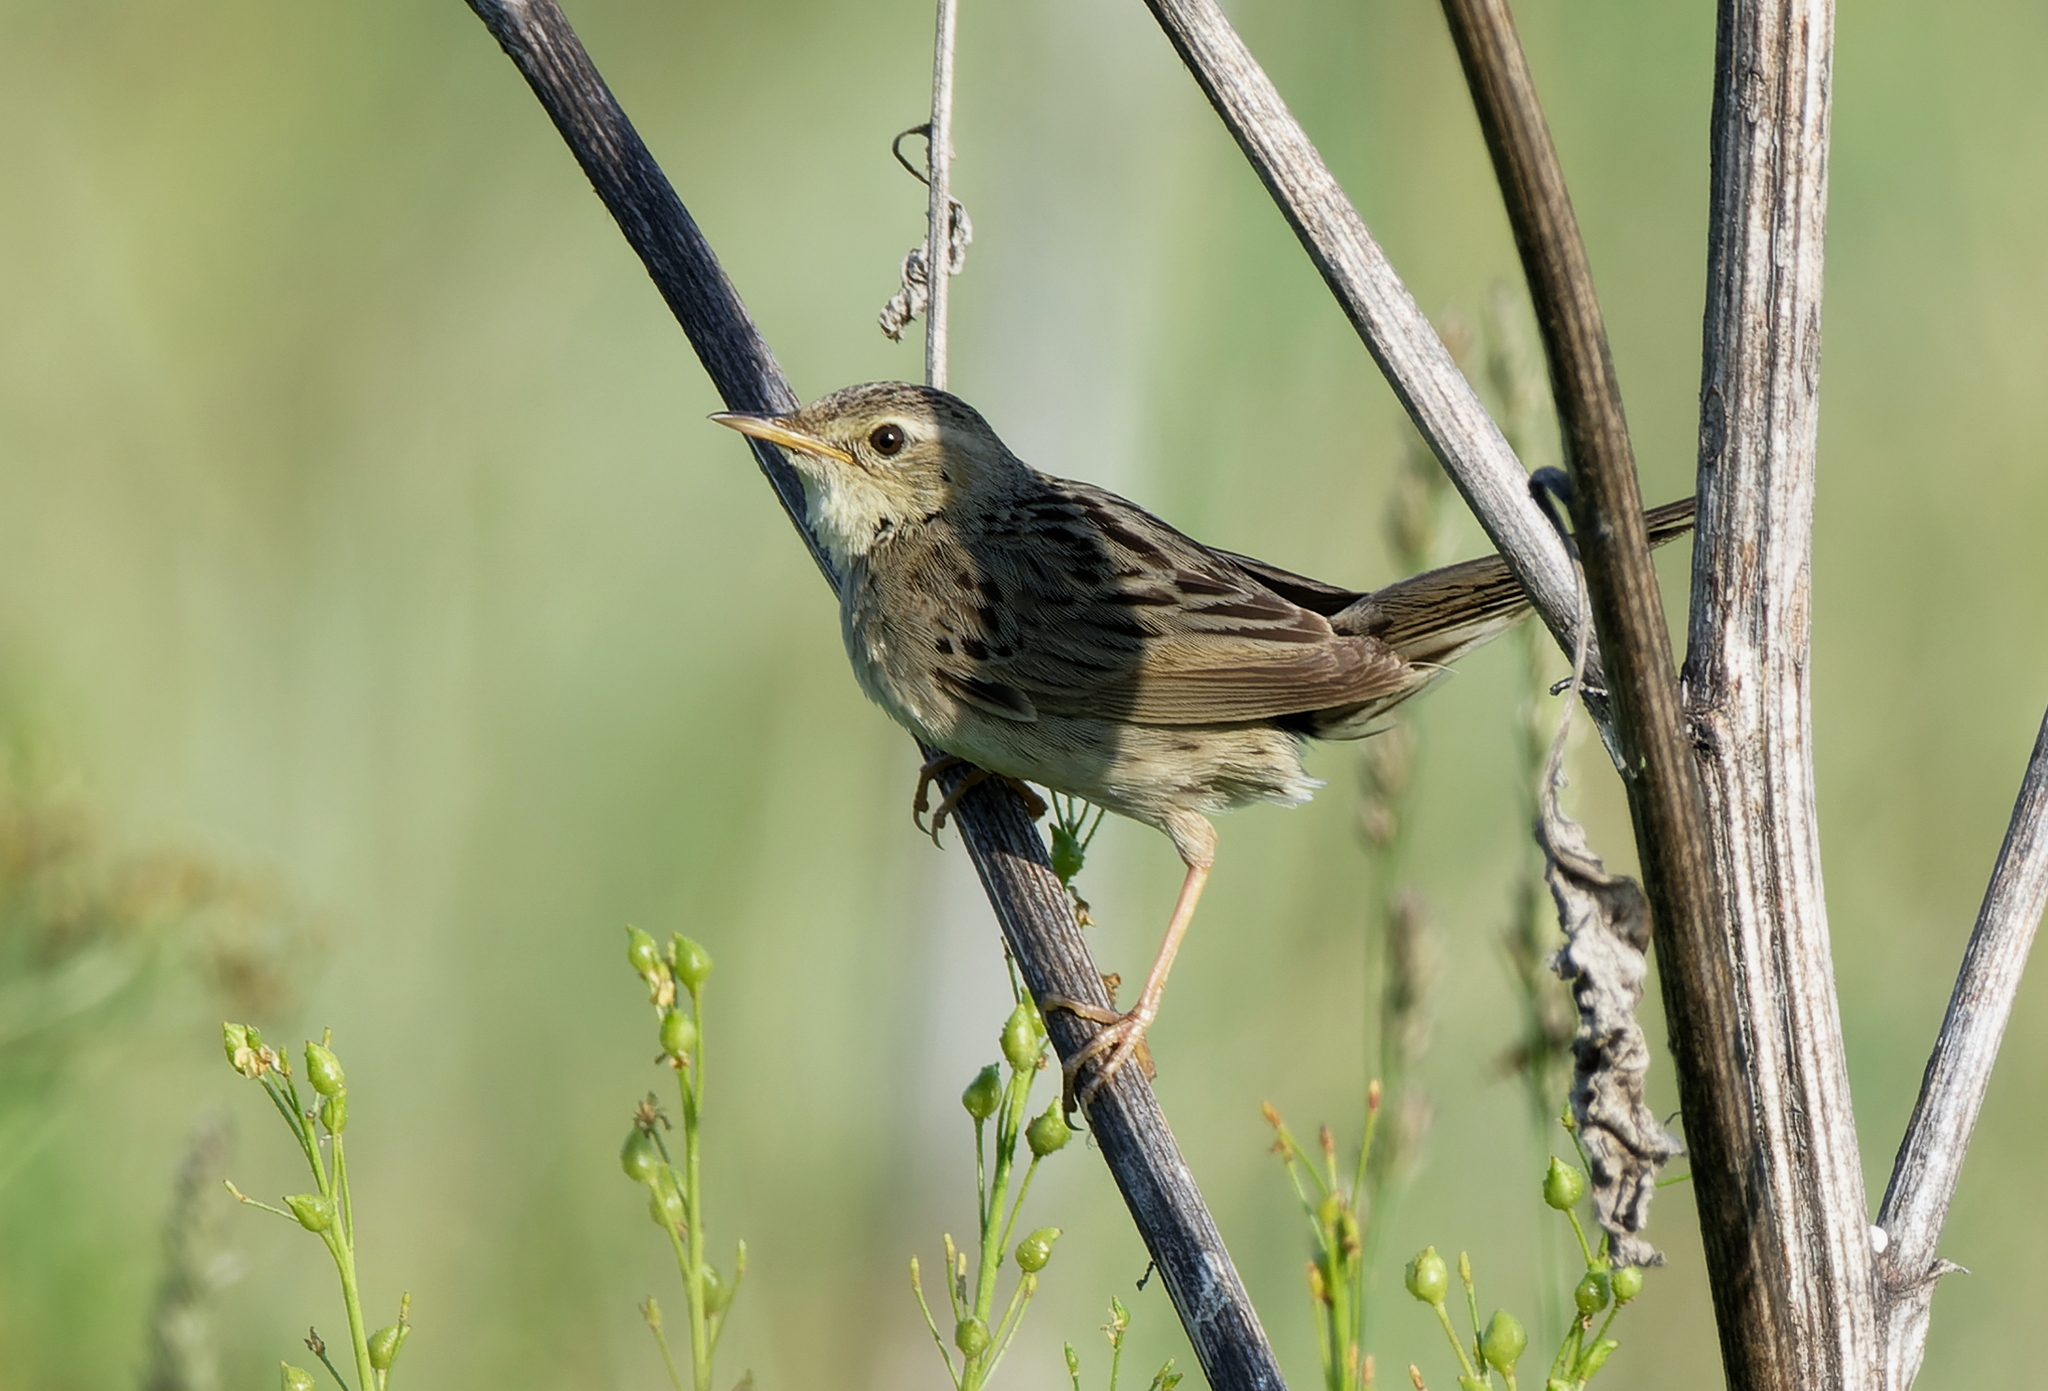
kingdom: Animalia
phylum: Chordata
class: Aves
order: Passeriformes
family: Locustellidae
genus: Locustella
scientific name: Locustella naevia
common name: Common grasshopper warbler
